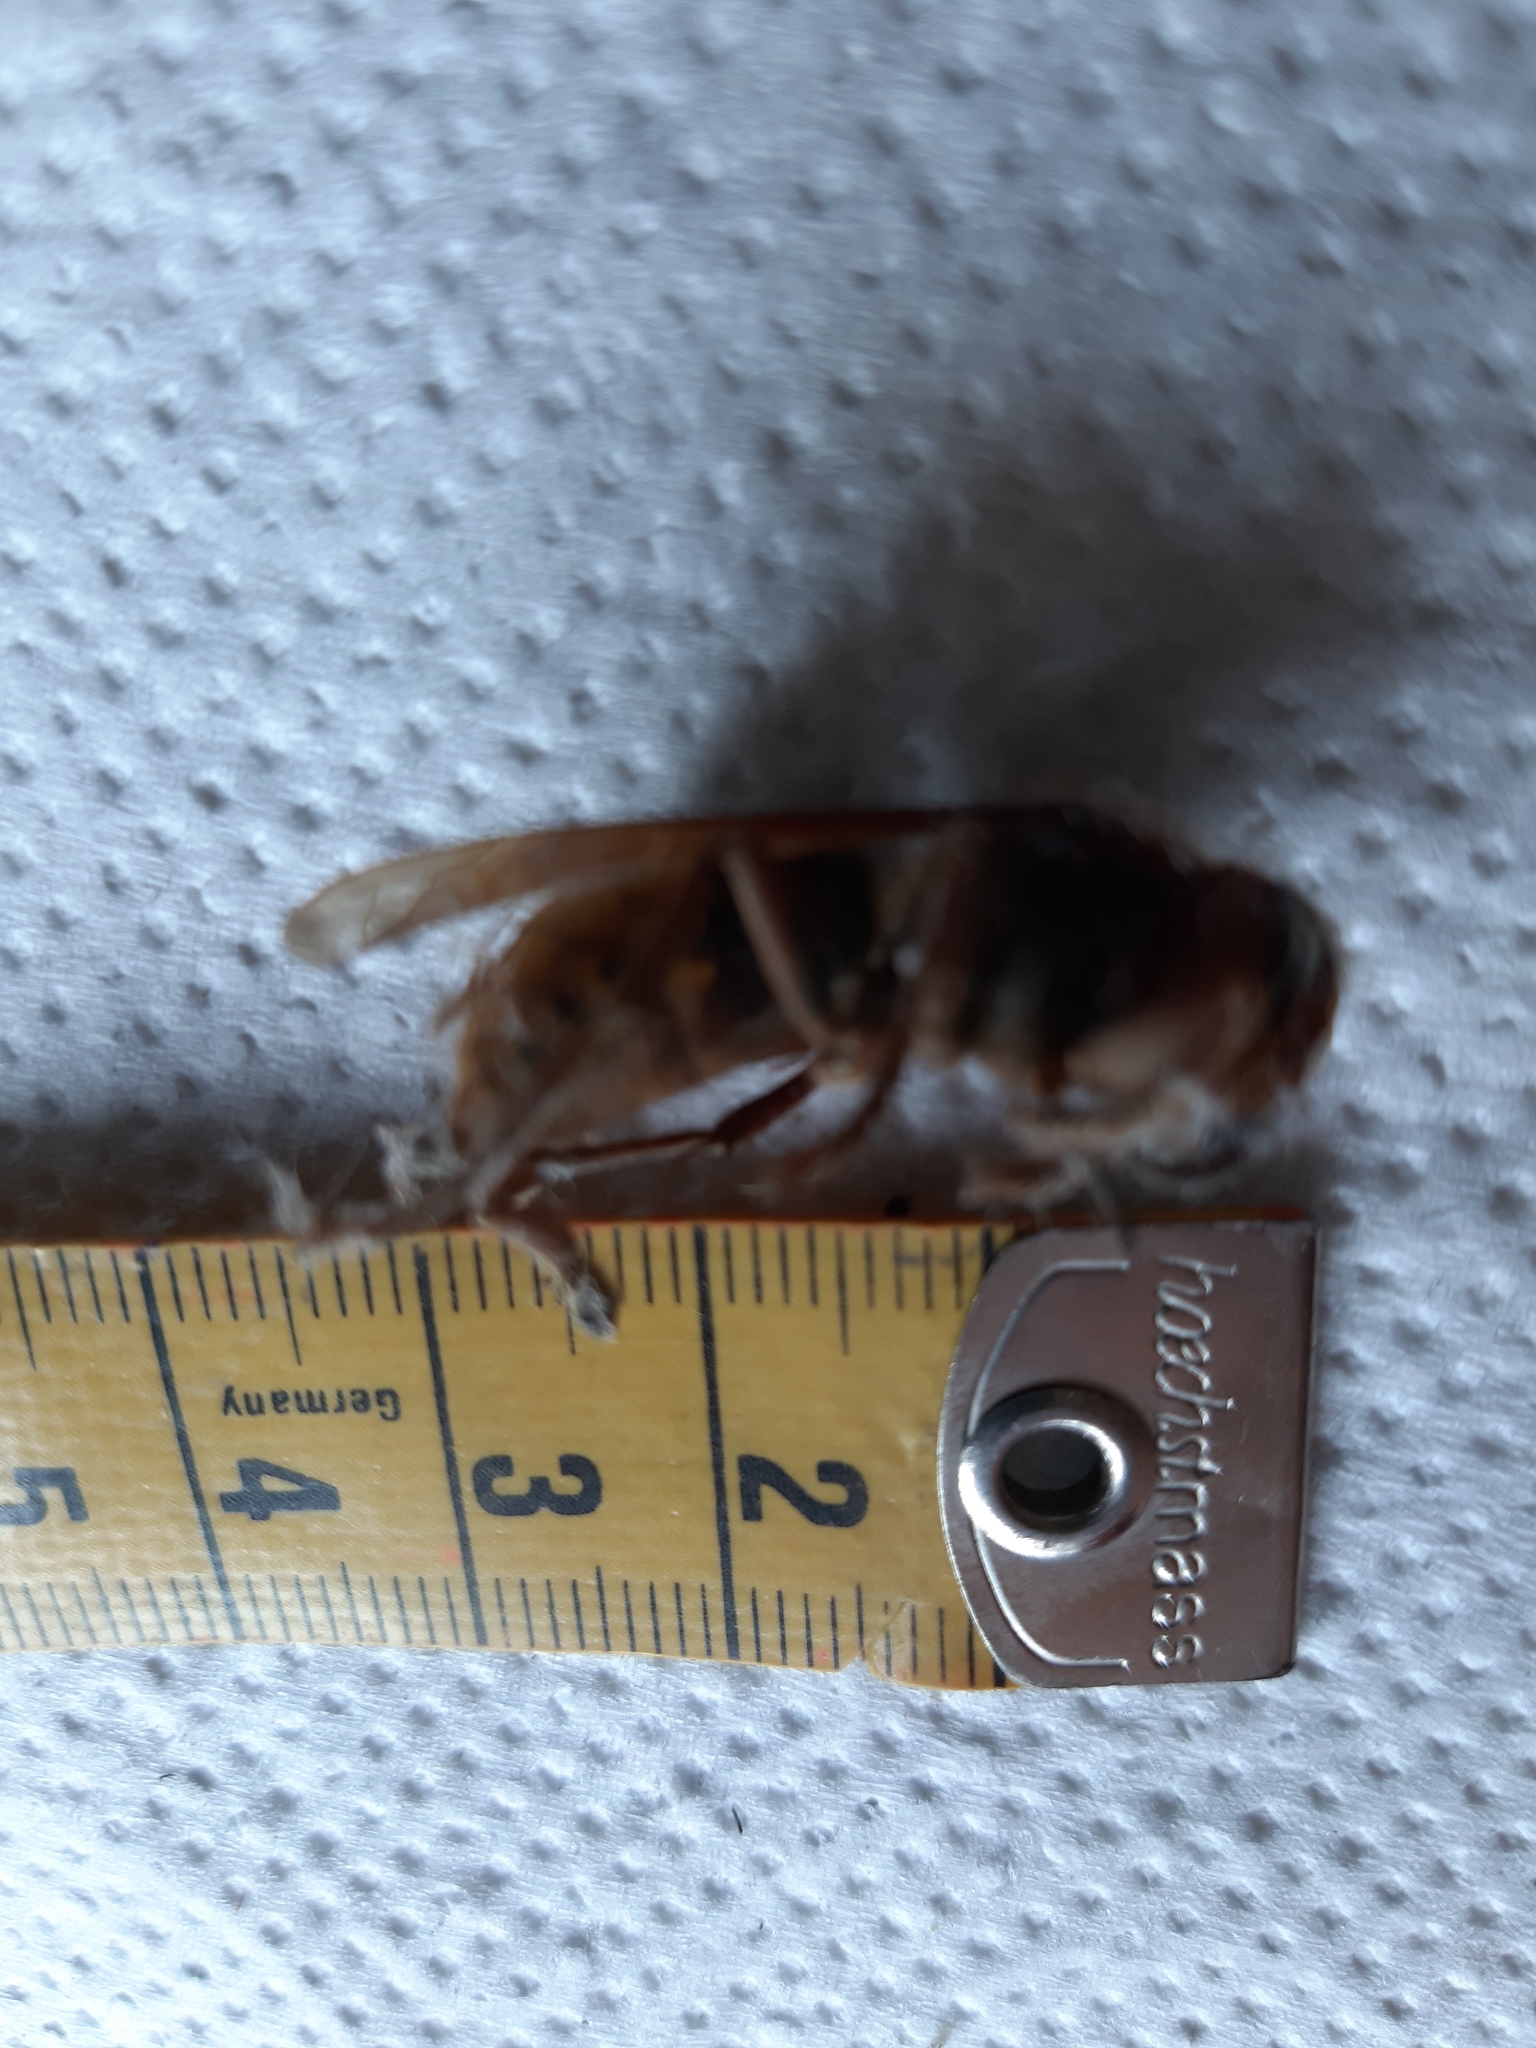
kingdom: Animalia
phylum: Arthropoda
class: Insecta
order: Hymenoptera
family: Vespidae
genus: Vespa
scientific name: Vespa crabro
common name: Hornet
